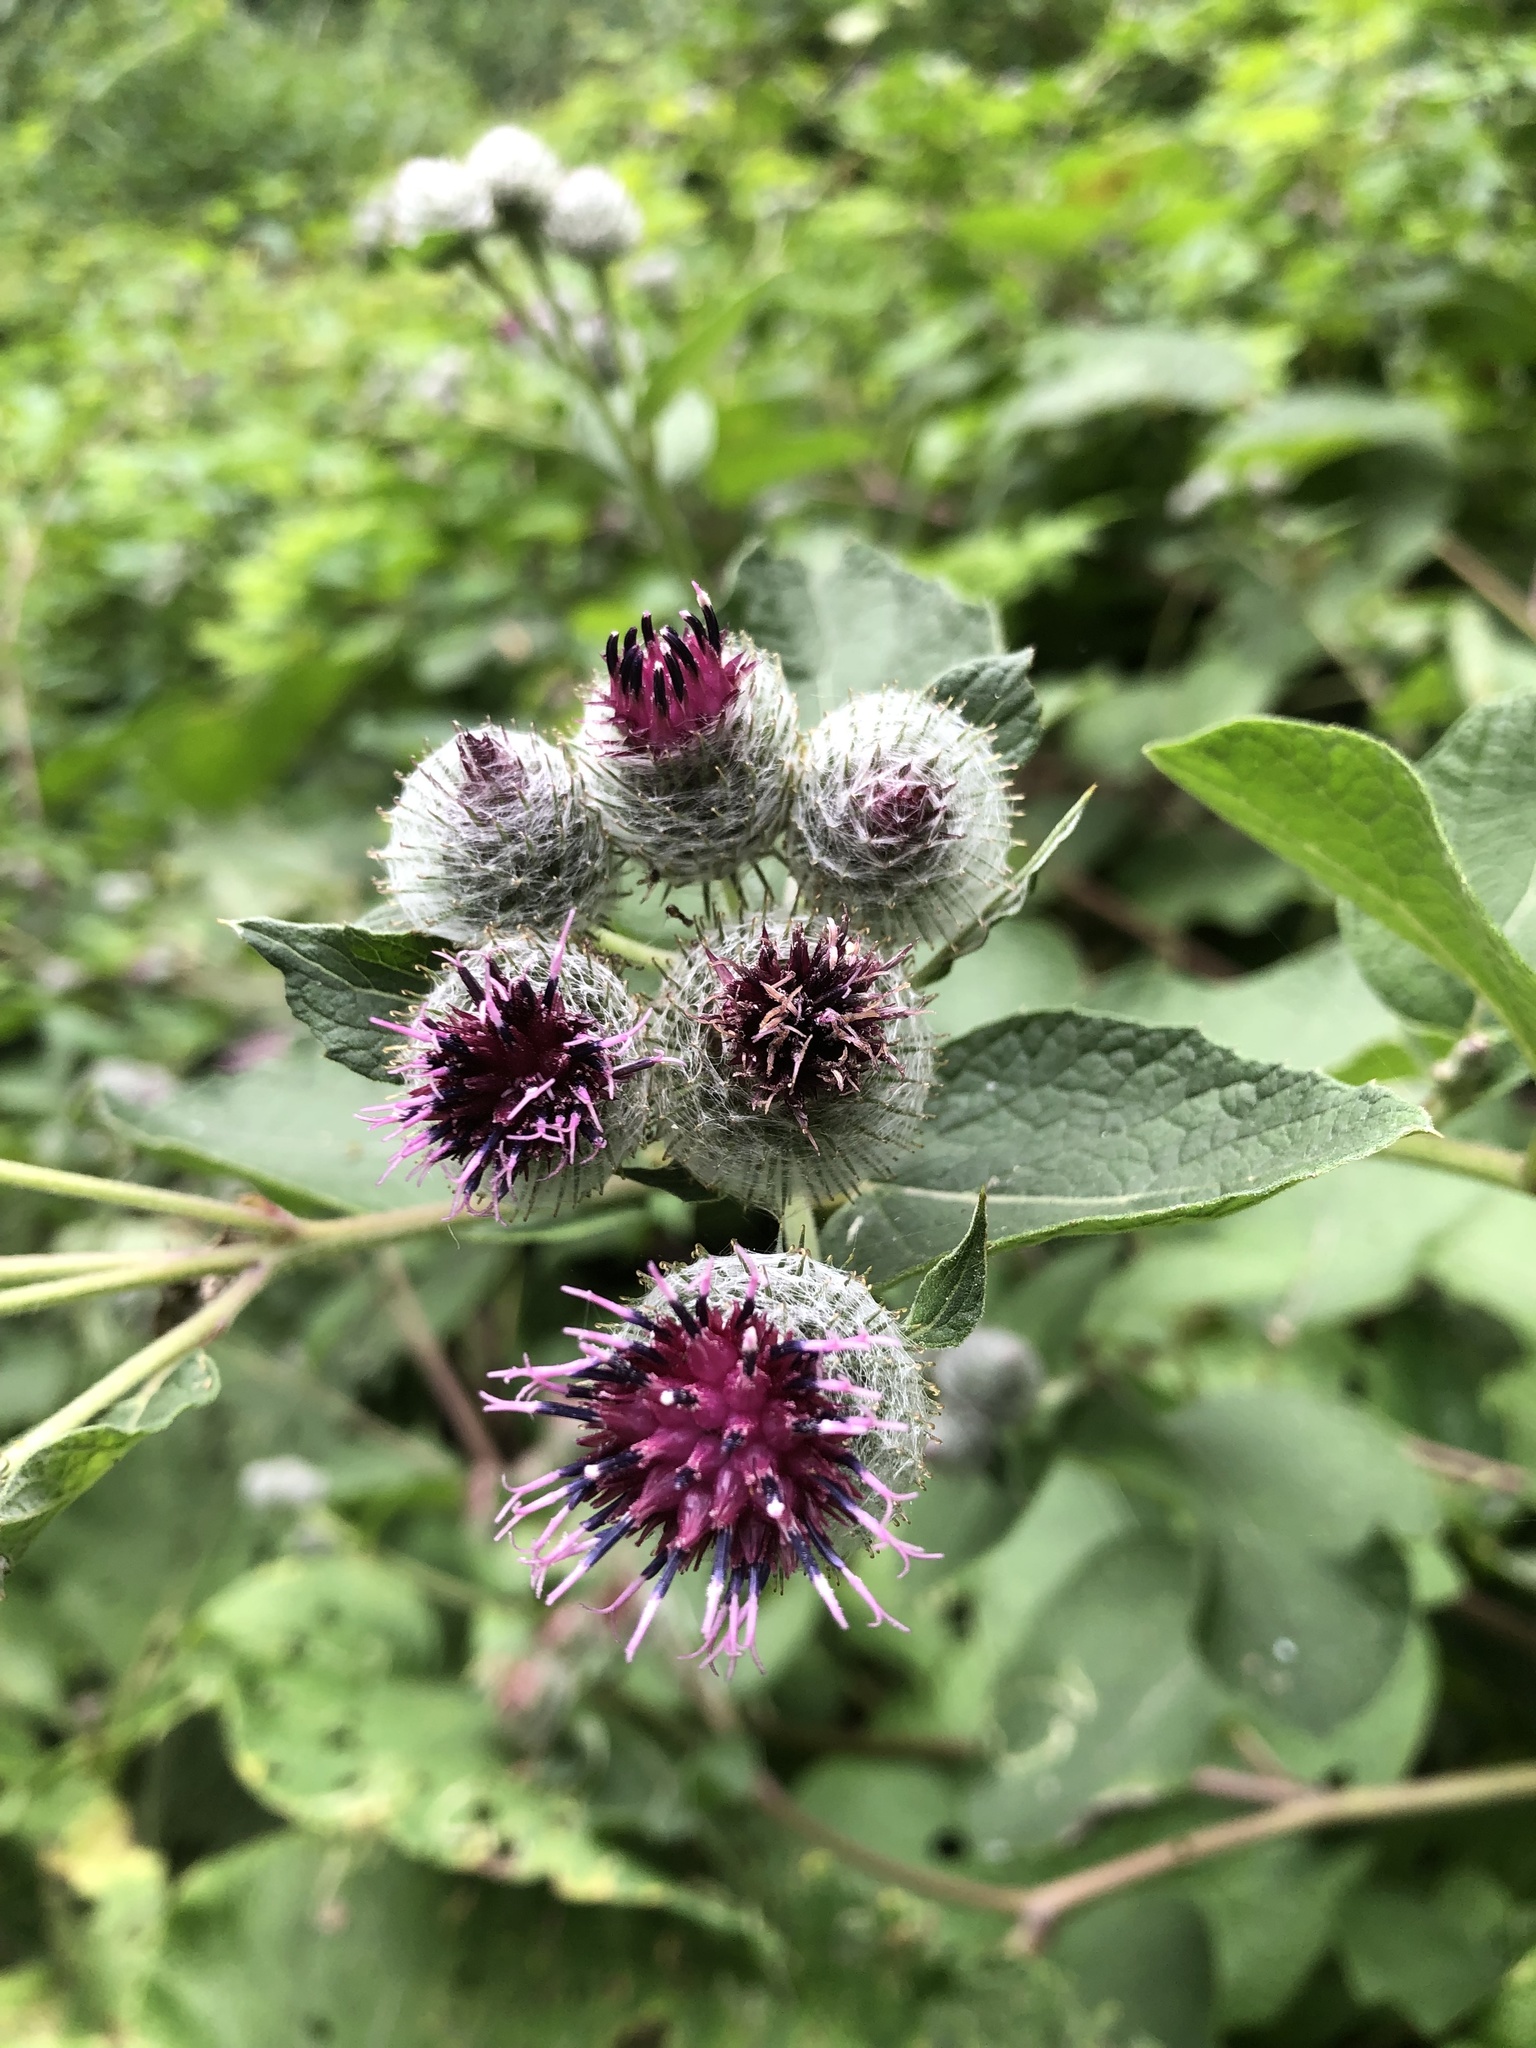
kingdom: Plantae
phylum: Tracheophyta
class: Magnoliopsida
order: Asterales
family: Asteraceae
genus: Arctium
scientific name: Arctium tomentosum
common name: Woolly burdock
